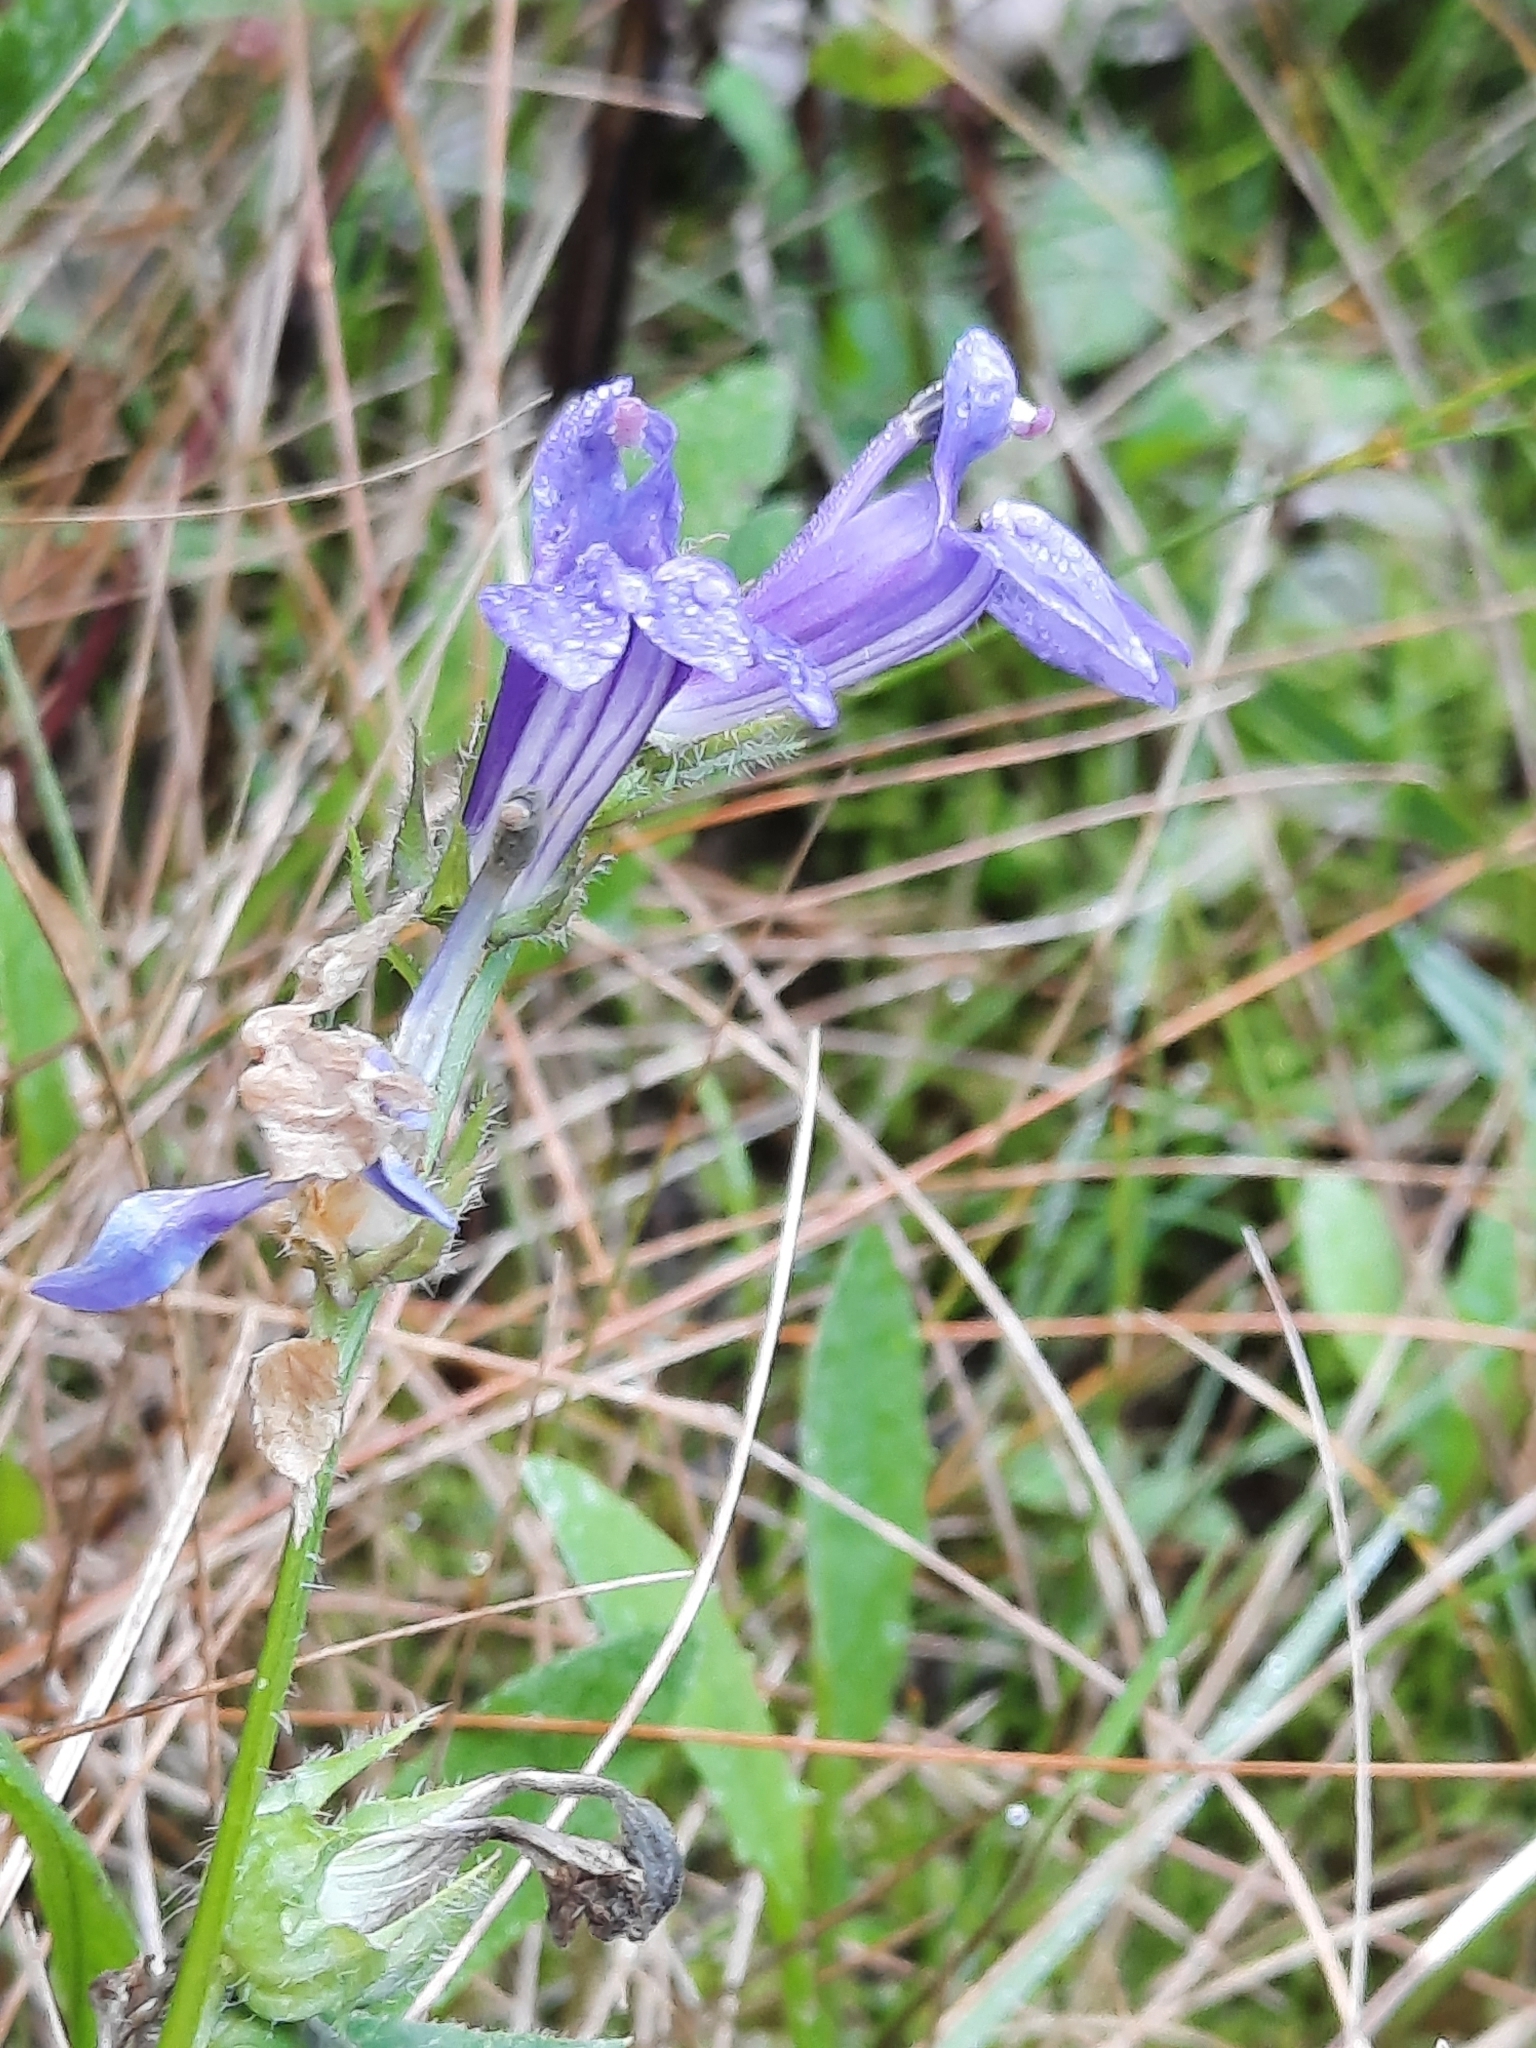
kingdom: Plantae
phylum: Tracheophyta
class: Magnoliopsida
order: Asterales
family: Campanulaceae
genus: Lobelia
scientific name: Lobelia siphilitica
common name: Great lobelia
